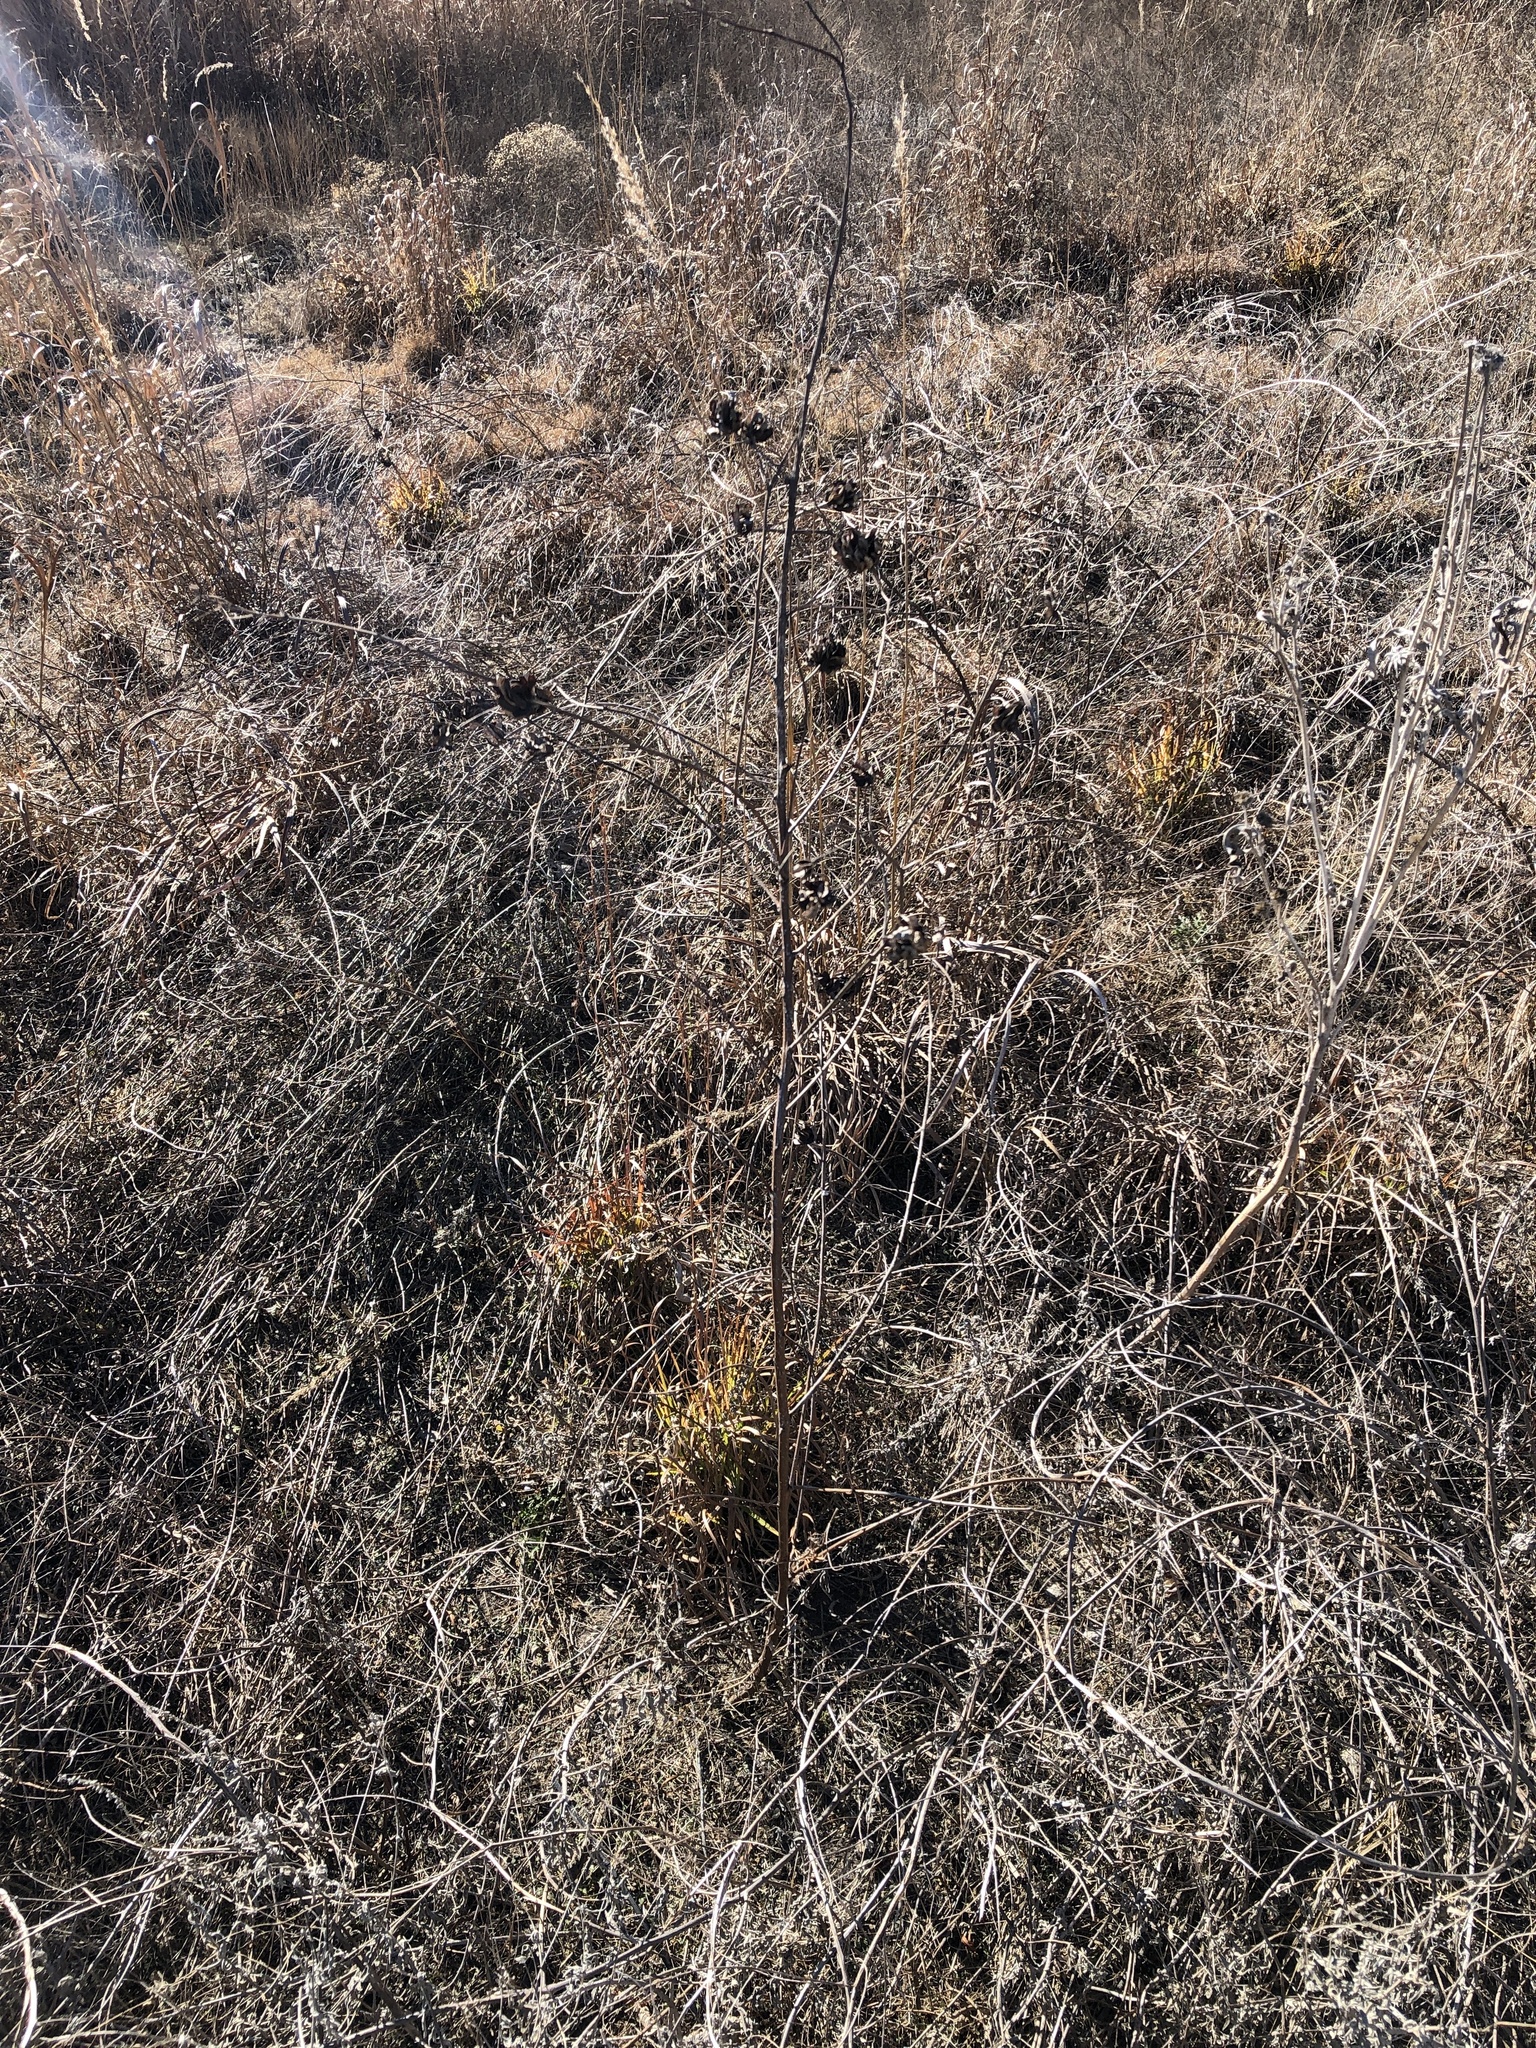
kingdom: Plantae
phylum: Tracheophyta
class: Magnoliopsida
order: Fabales
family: Fabaceae
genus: Desmanthus
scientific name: Desmanthus illinoensis
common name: Illinois bundle-flower
